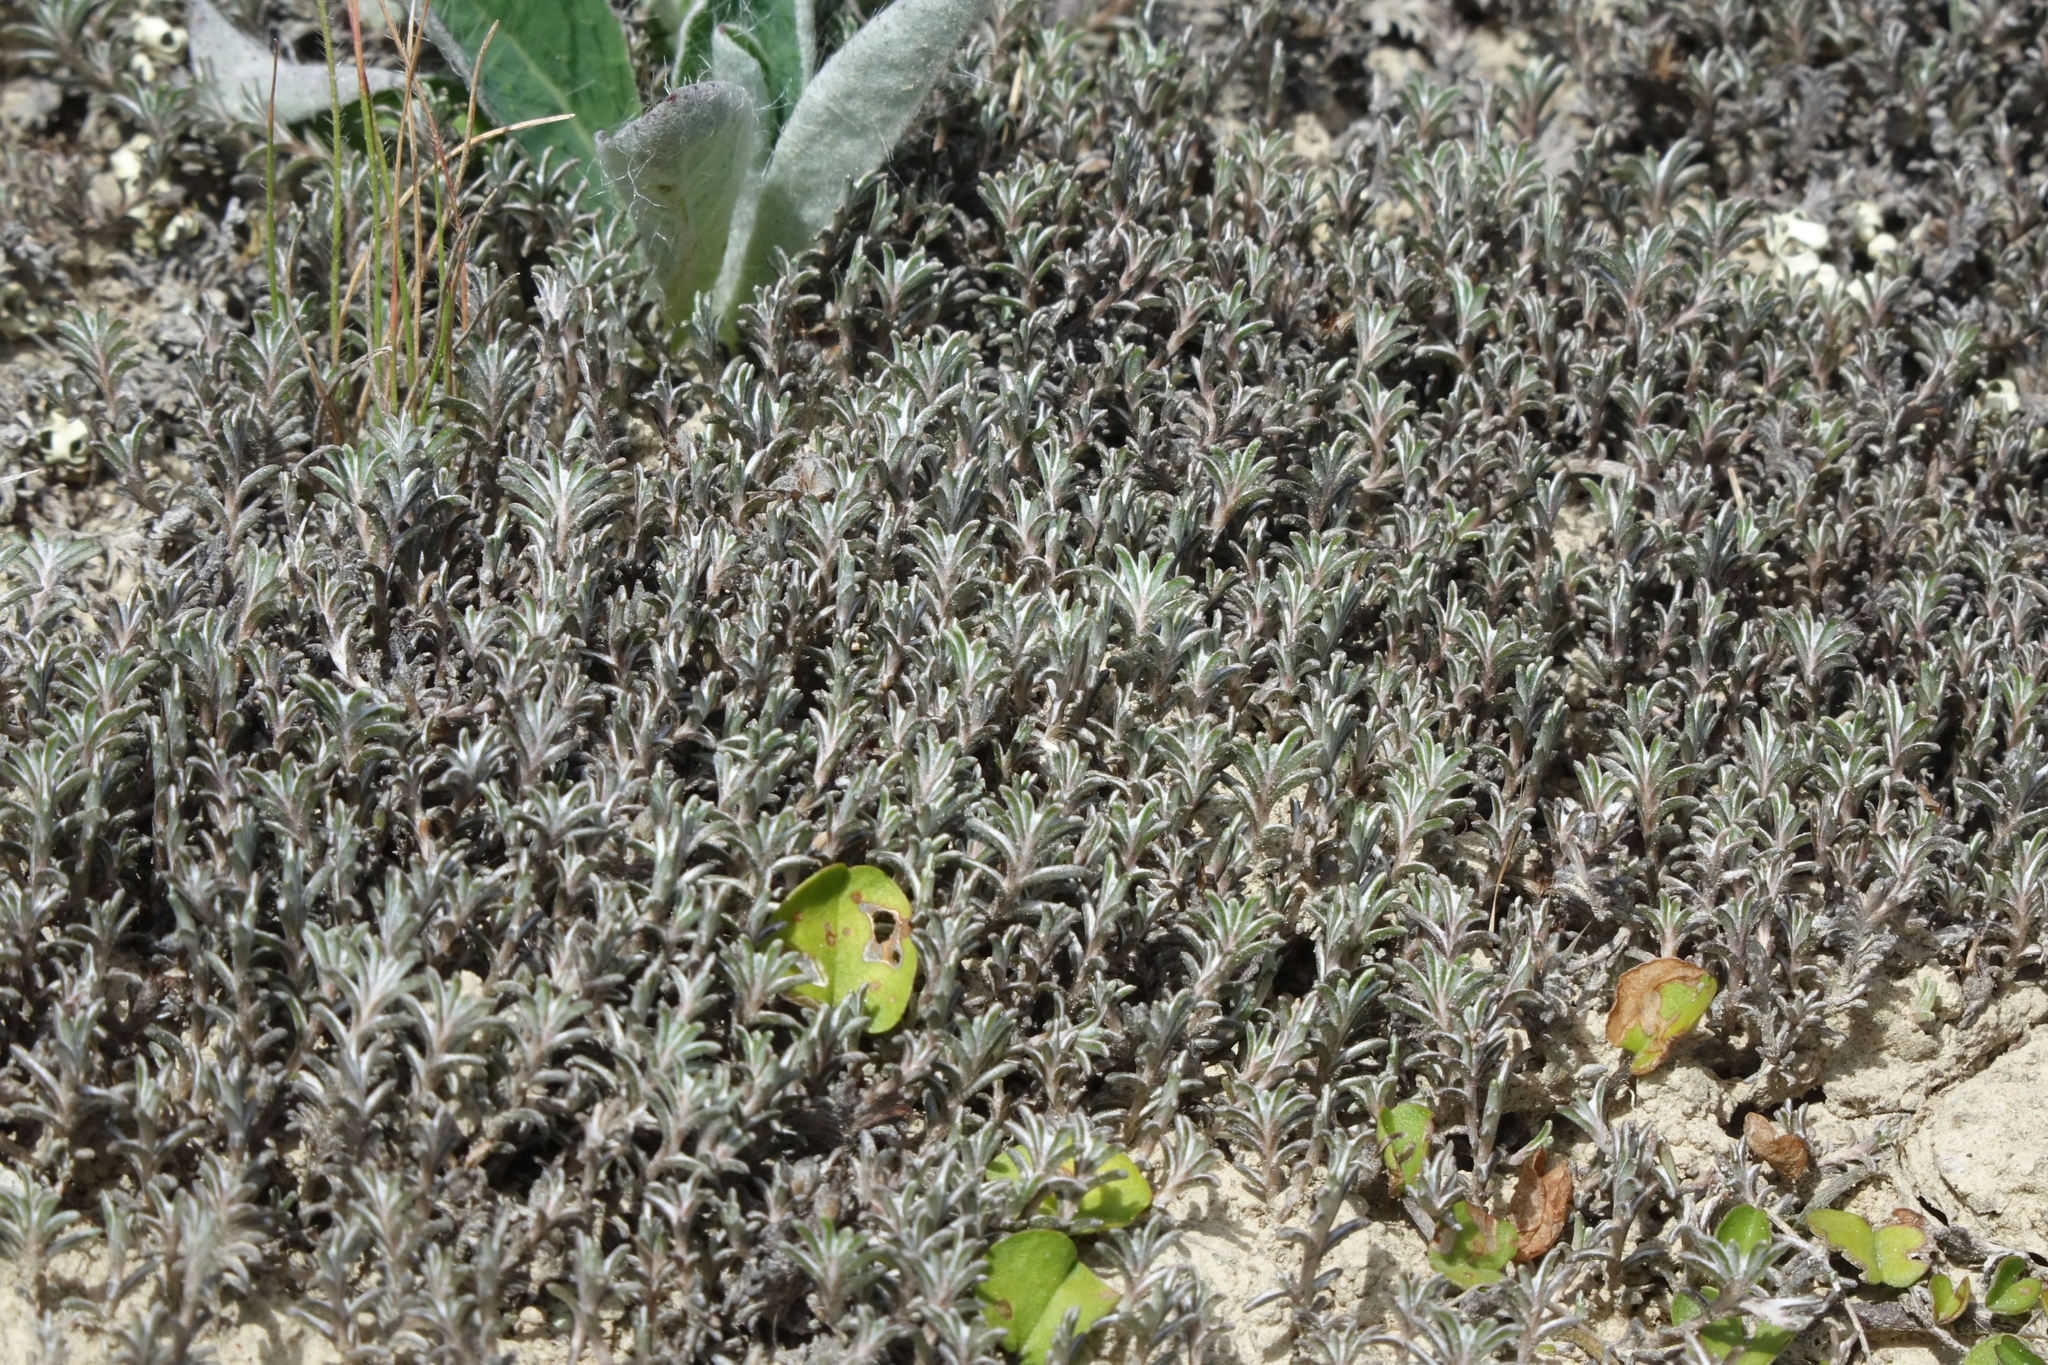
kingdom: Plantae
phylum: Tracheophyta
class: Magnoliopsida
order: Asterales
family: Asteraceae
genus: Raoulia
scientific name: Raoulia monroi
